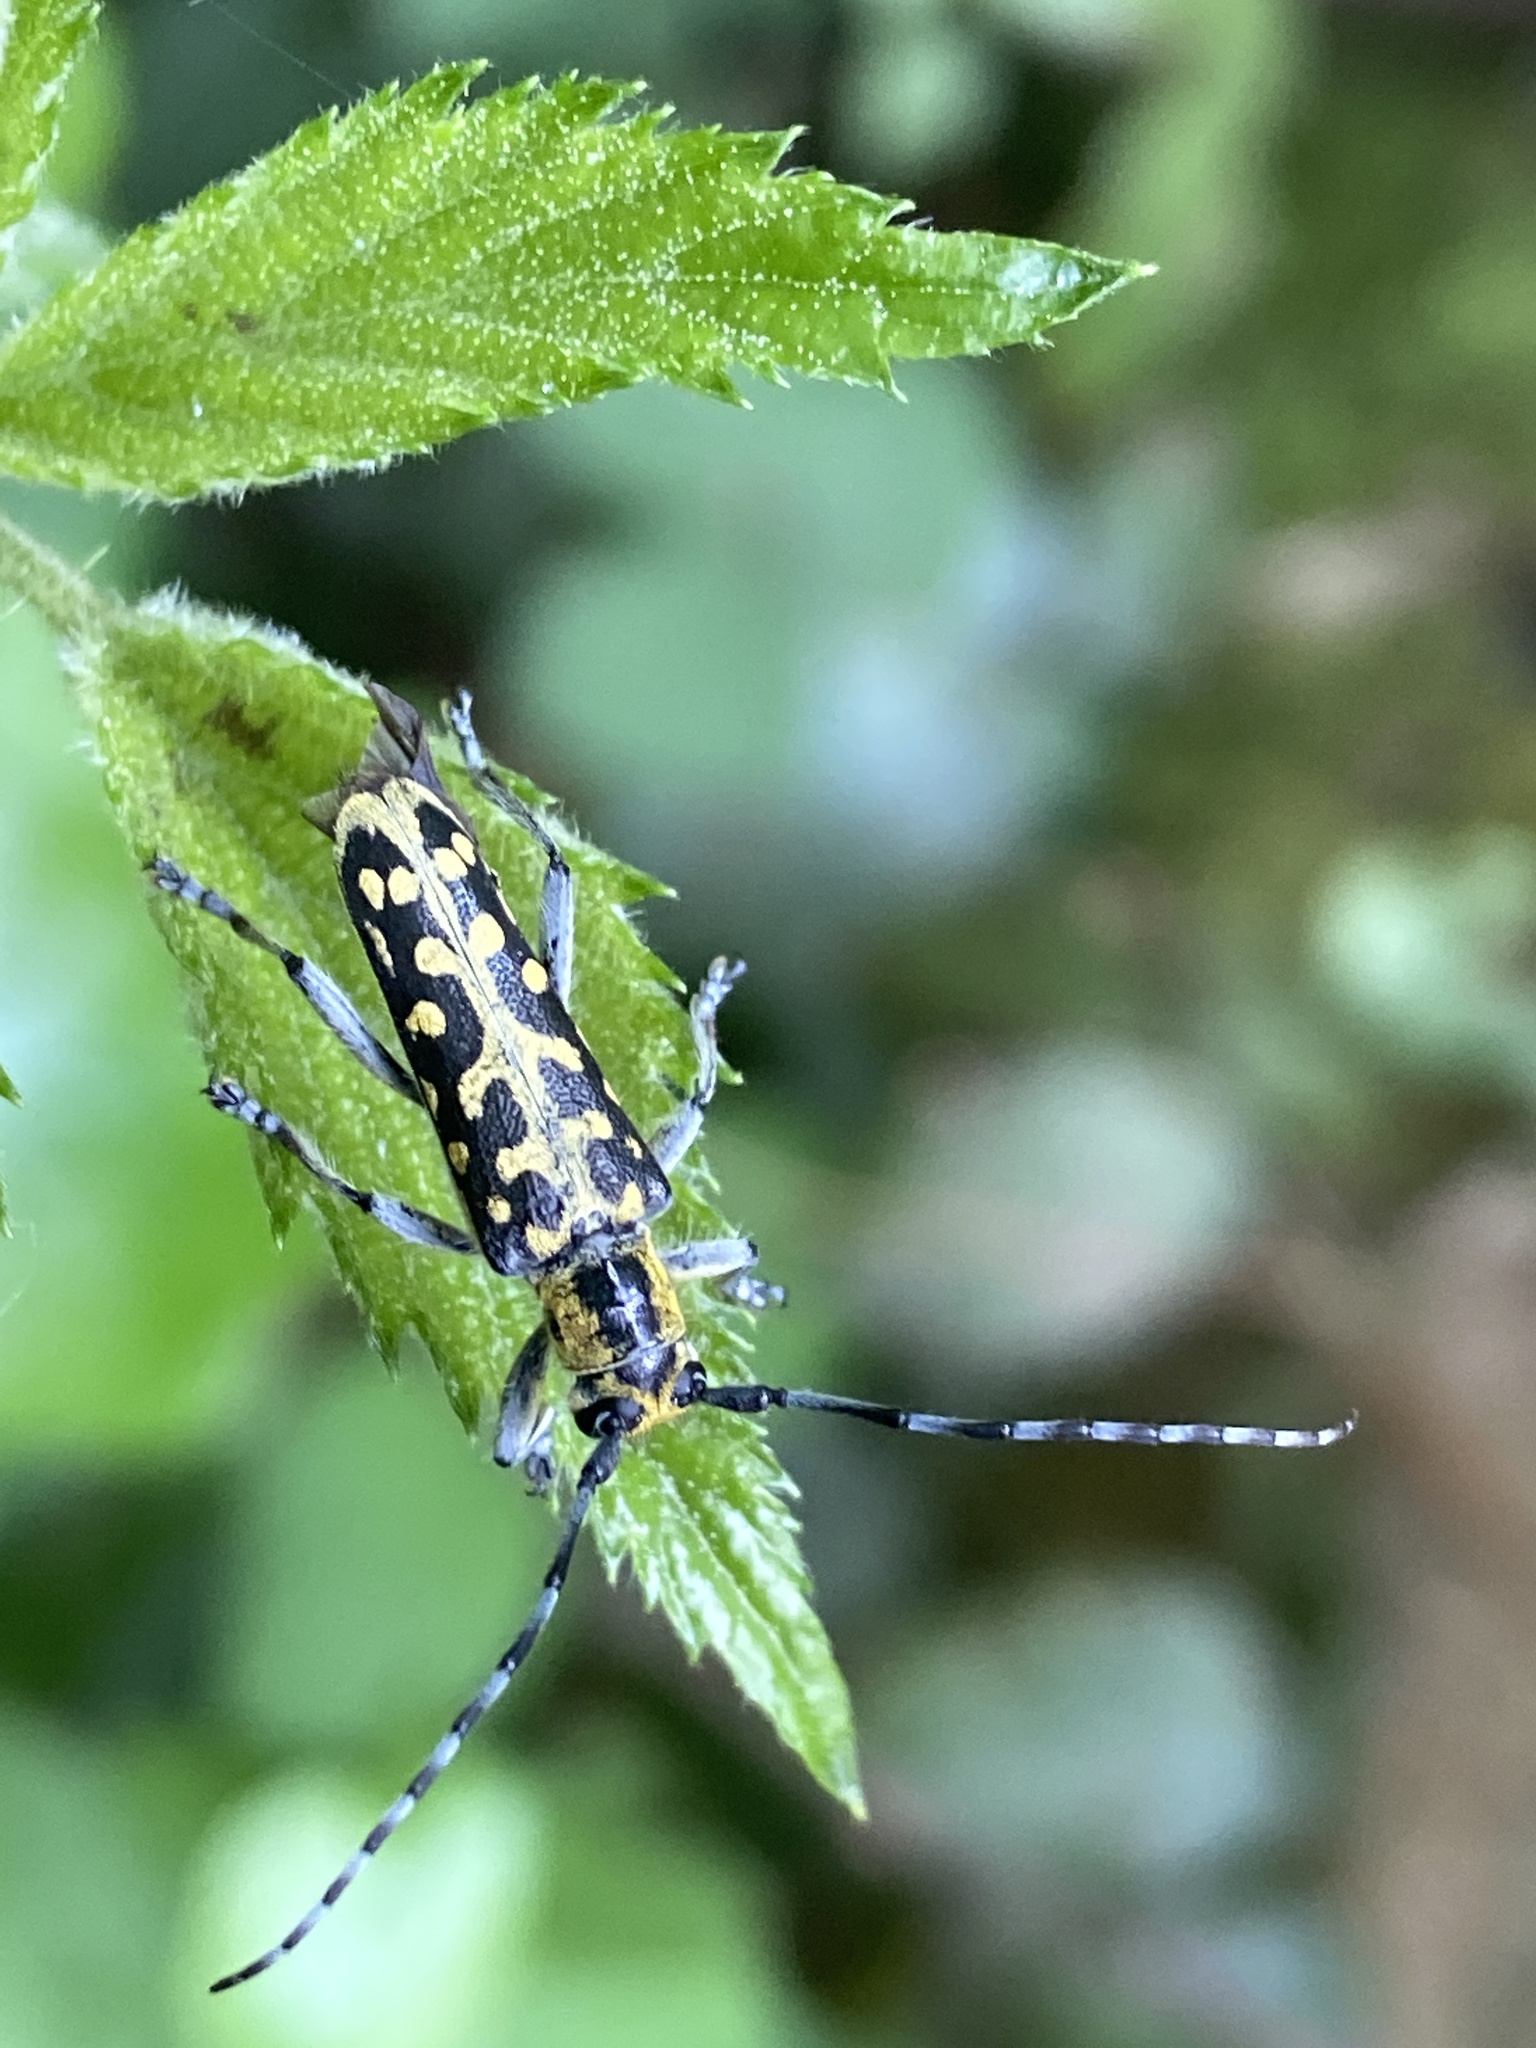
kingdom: Animalia
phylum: Arthropoda
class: Insecta
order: Coleoptera
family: Cerambycidae
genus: Saperda
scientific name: Saperda scalaris
